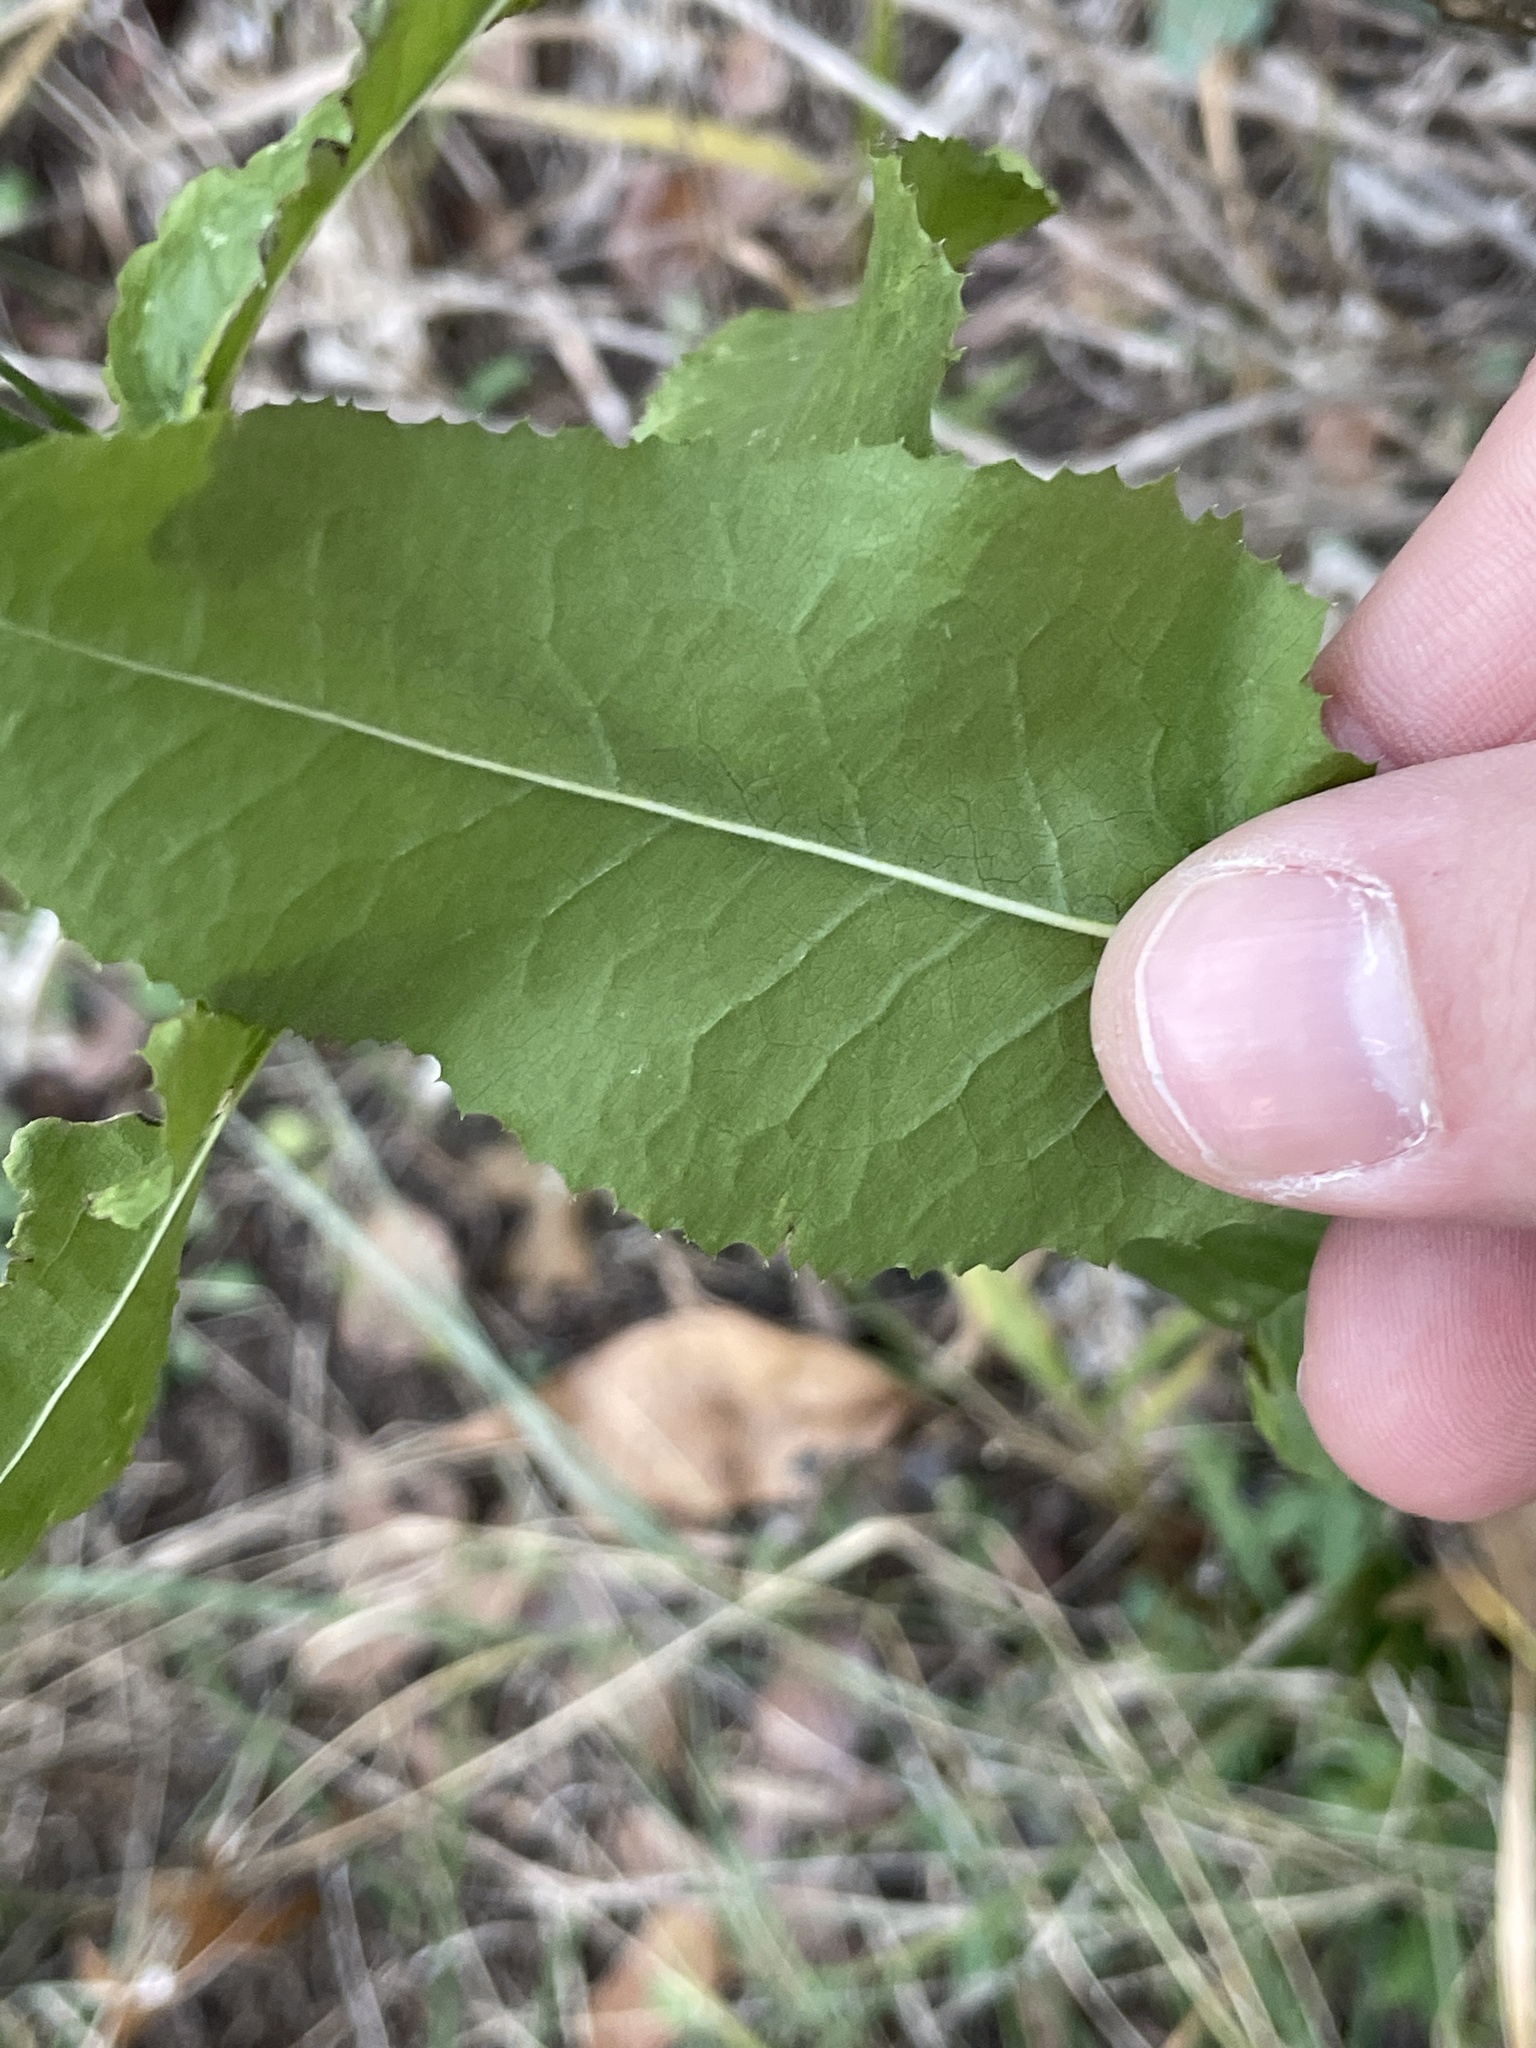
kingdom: Plantae
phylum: Tracheophyta
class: Magnoliopsida
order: Asterales
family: Asteraceae
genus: Acourtia
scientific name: Acourtia wrightii
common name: Brownfoot
